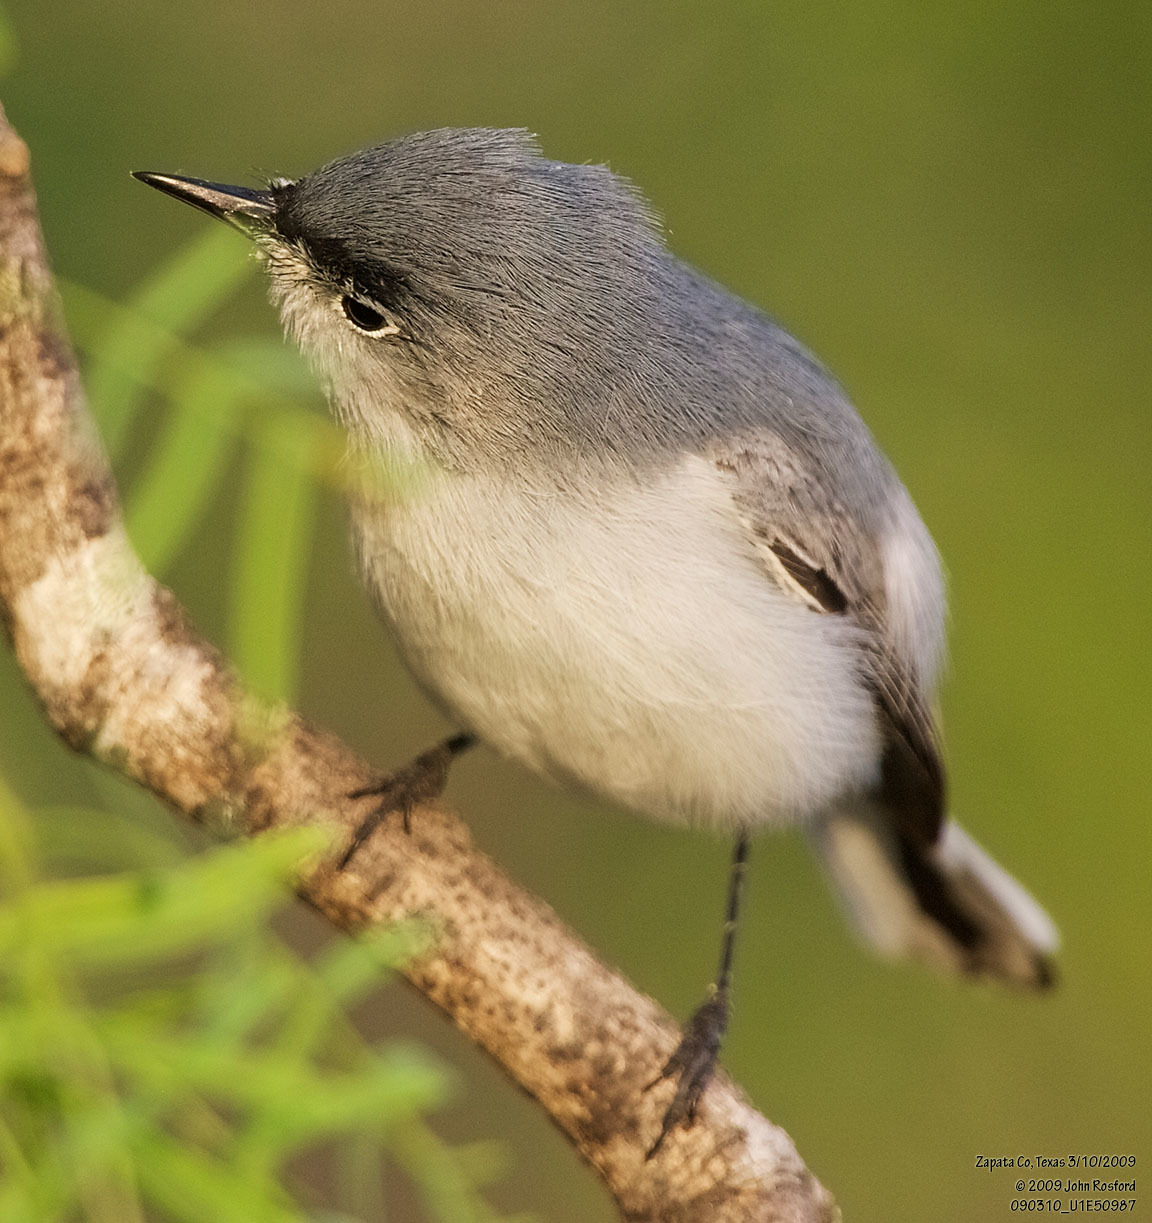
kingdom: Animalia
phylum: Chordata
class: Aves
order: Passeriformes
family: Polioptilidae
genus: Polioptila
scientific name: Polioptila caerulea
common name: Blue-gray gnatcatcher
